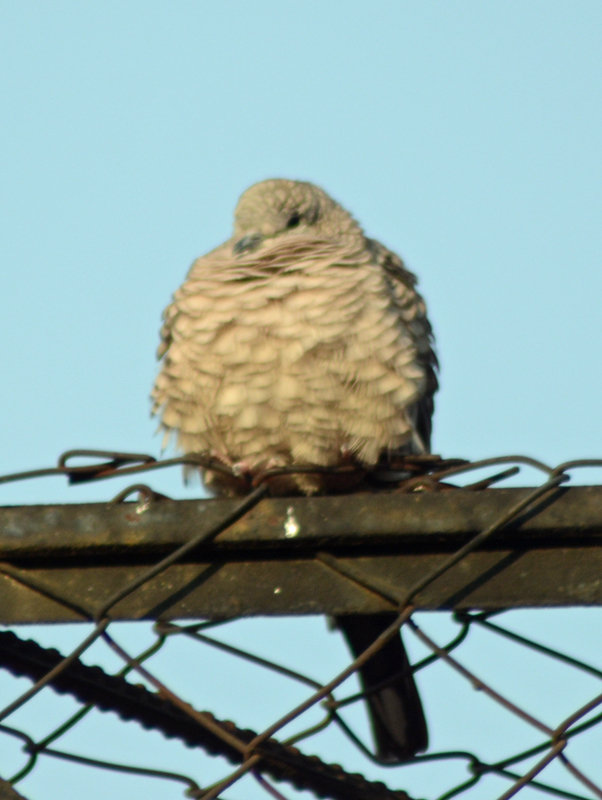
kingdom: Animalia
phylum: Chordata
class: Aves
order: Columbiformes
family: Columbidae
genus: Columbina
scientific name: Columbina inca
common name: Inca dove
